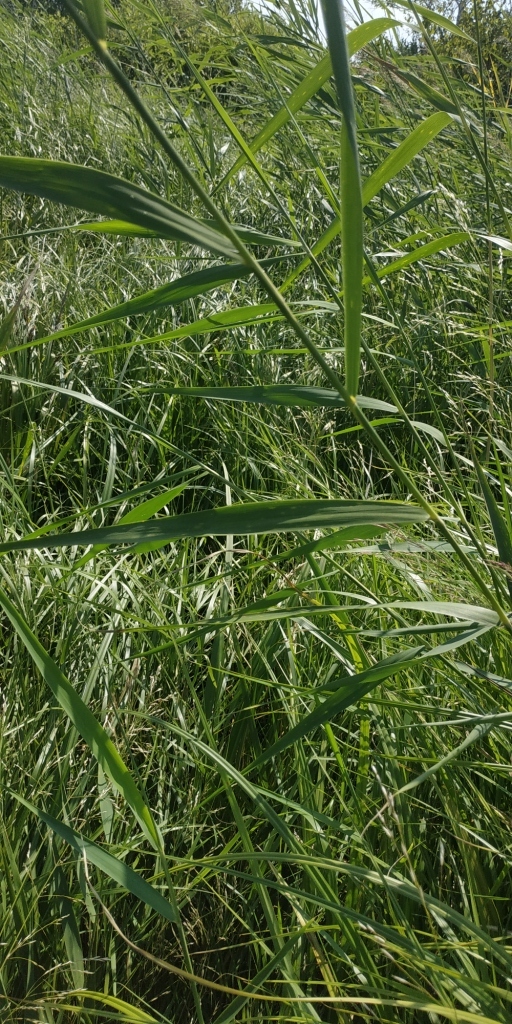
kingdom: Plantae
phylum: Tracheophyta
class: Liliopsida
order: Poales
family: Poaceae
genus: Phragmites
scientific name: Phragmites australis
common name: Common reed
